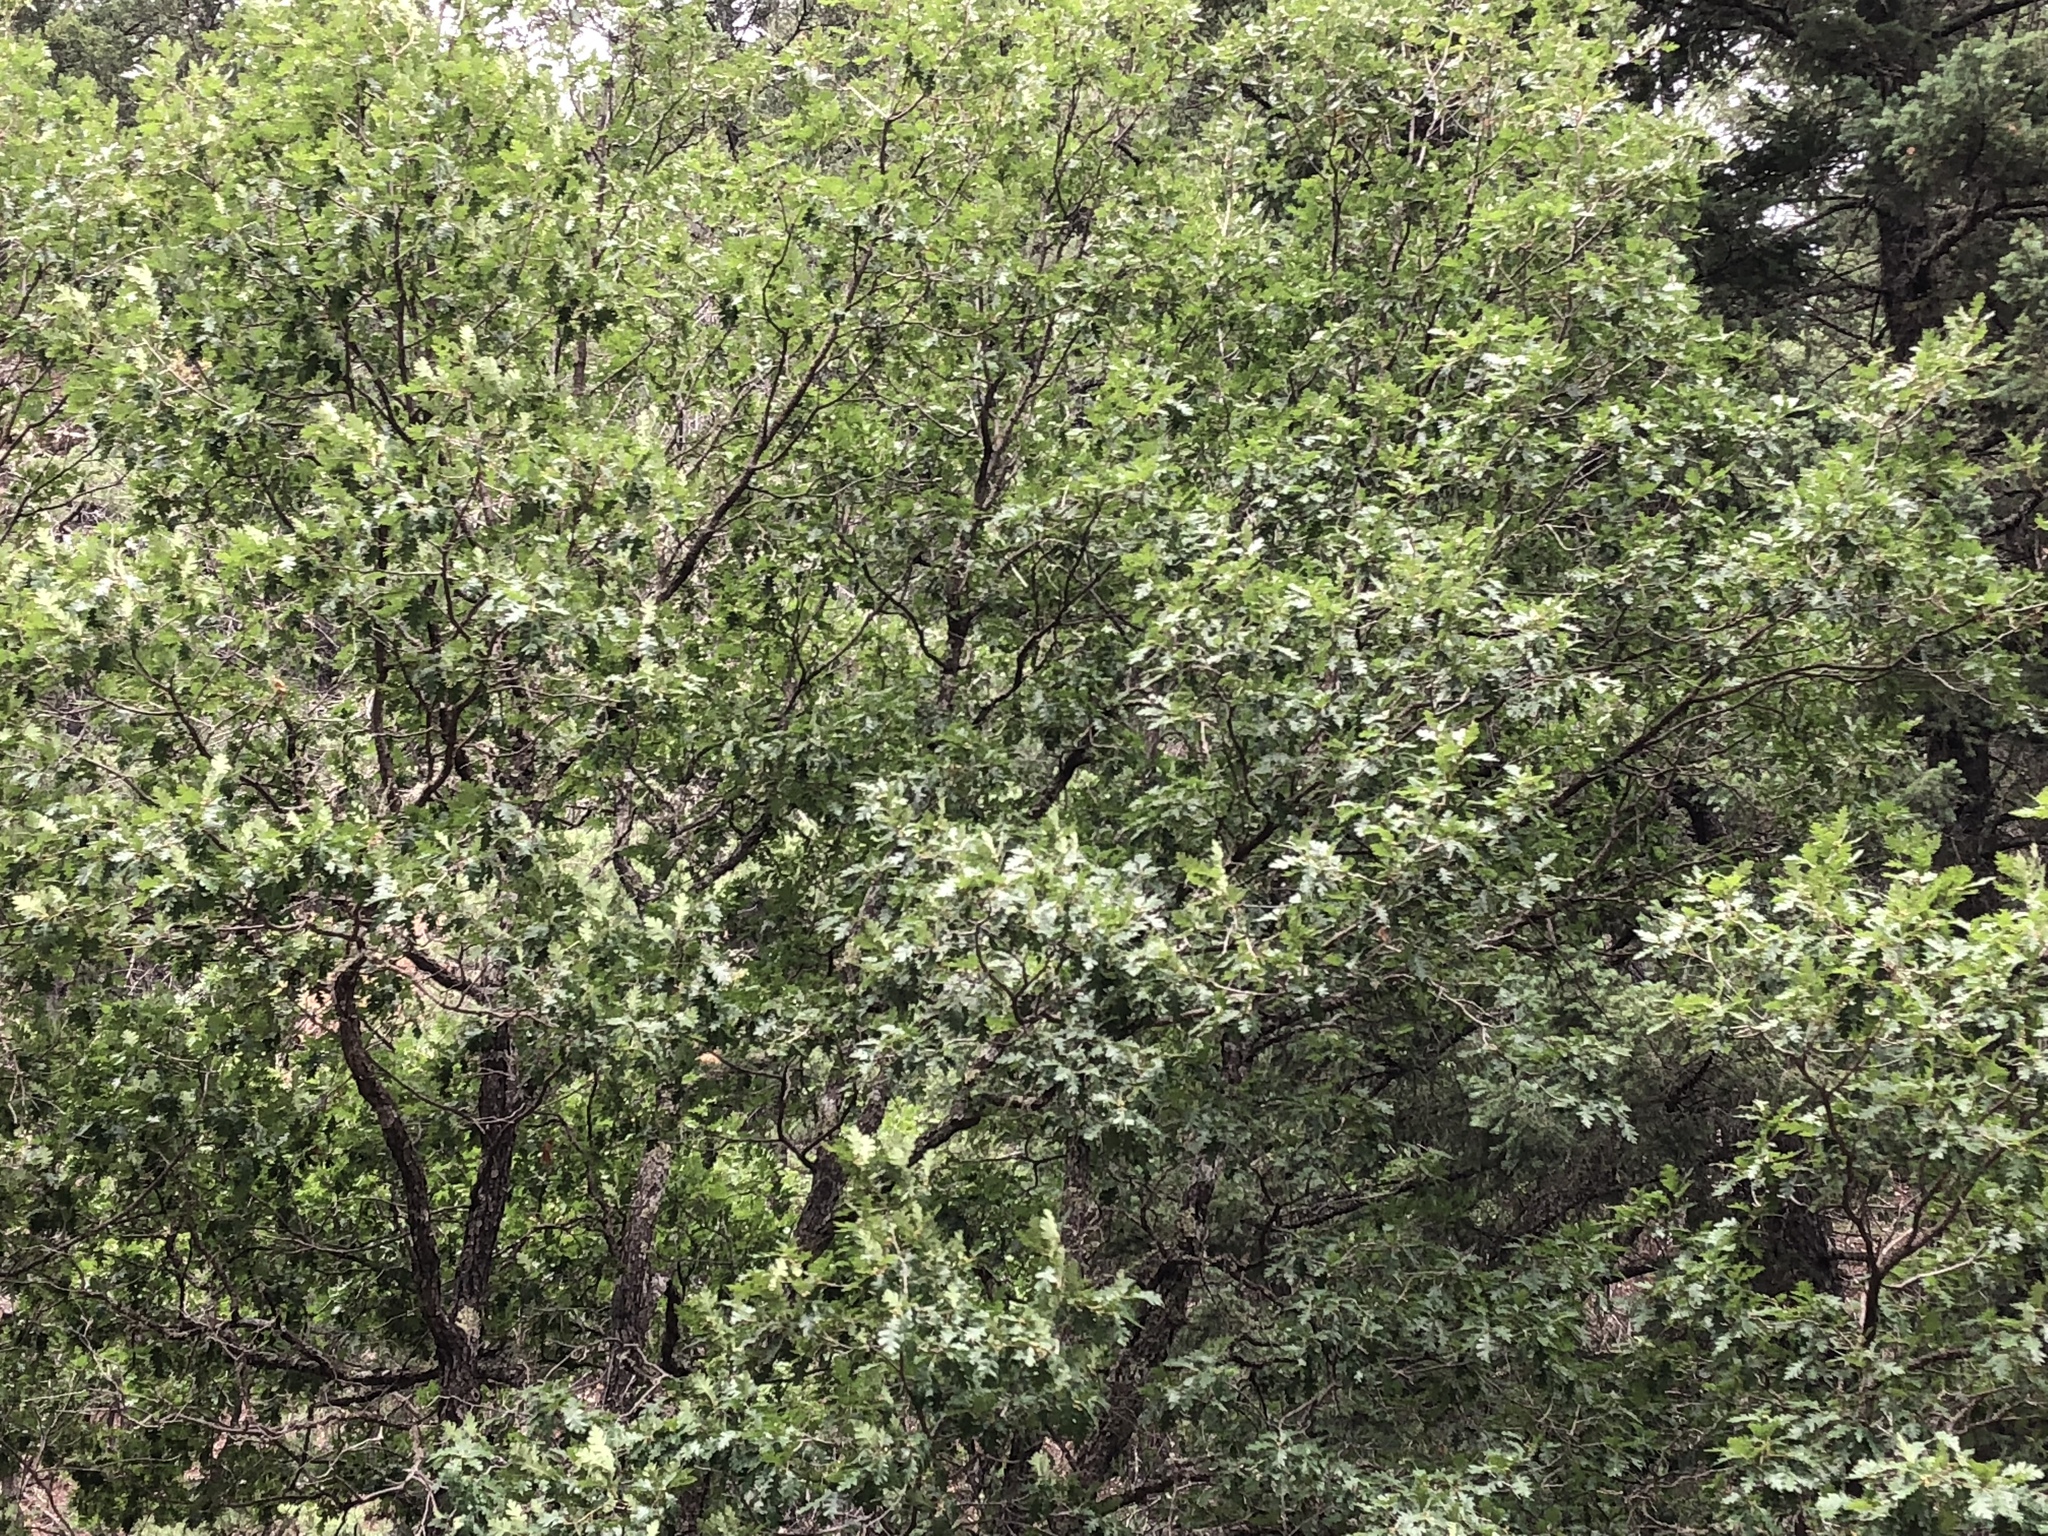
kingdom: Plantae
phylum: Tracheophyta
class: Magnoliopsida
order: Fagales
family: Fagaceae
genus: Quercus
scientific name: Quercus gambelii
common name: Gambel oak
